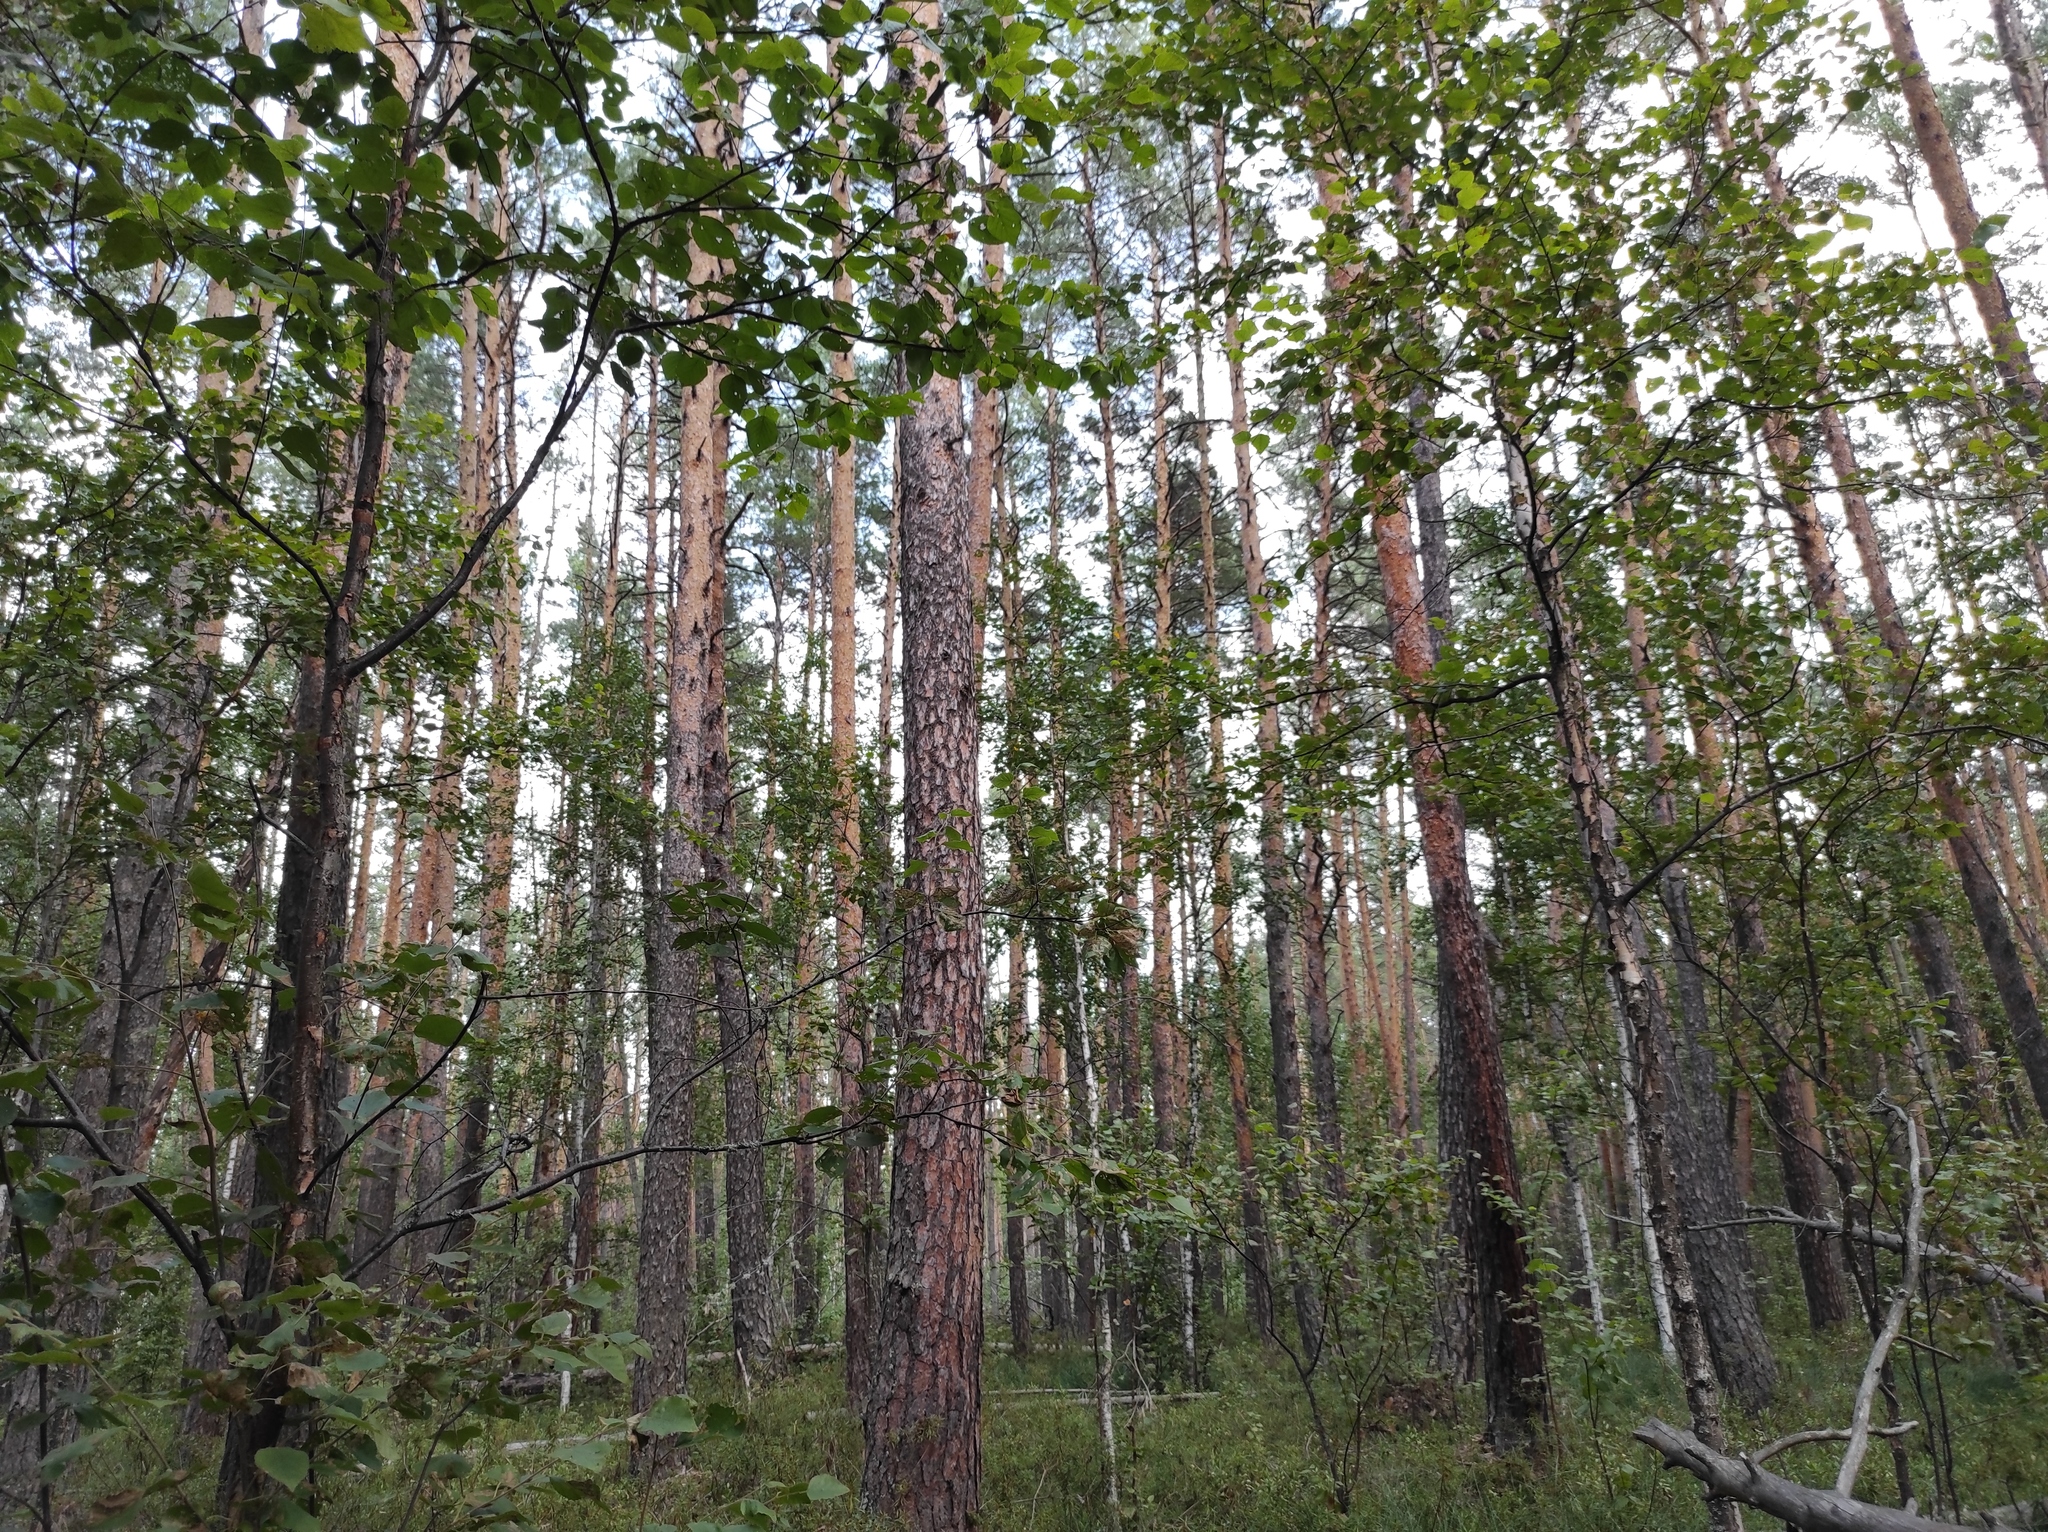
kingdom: Plantae
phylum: Tracheophyta
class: Pinopsida
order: Pinales
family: Pinaceae
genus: Pinus
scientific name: Pinus sylvestris
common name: Scots pine
